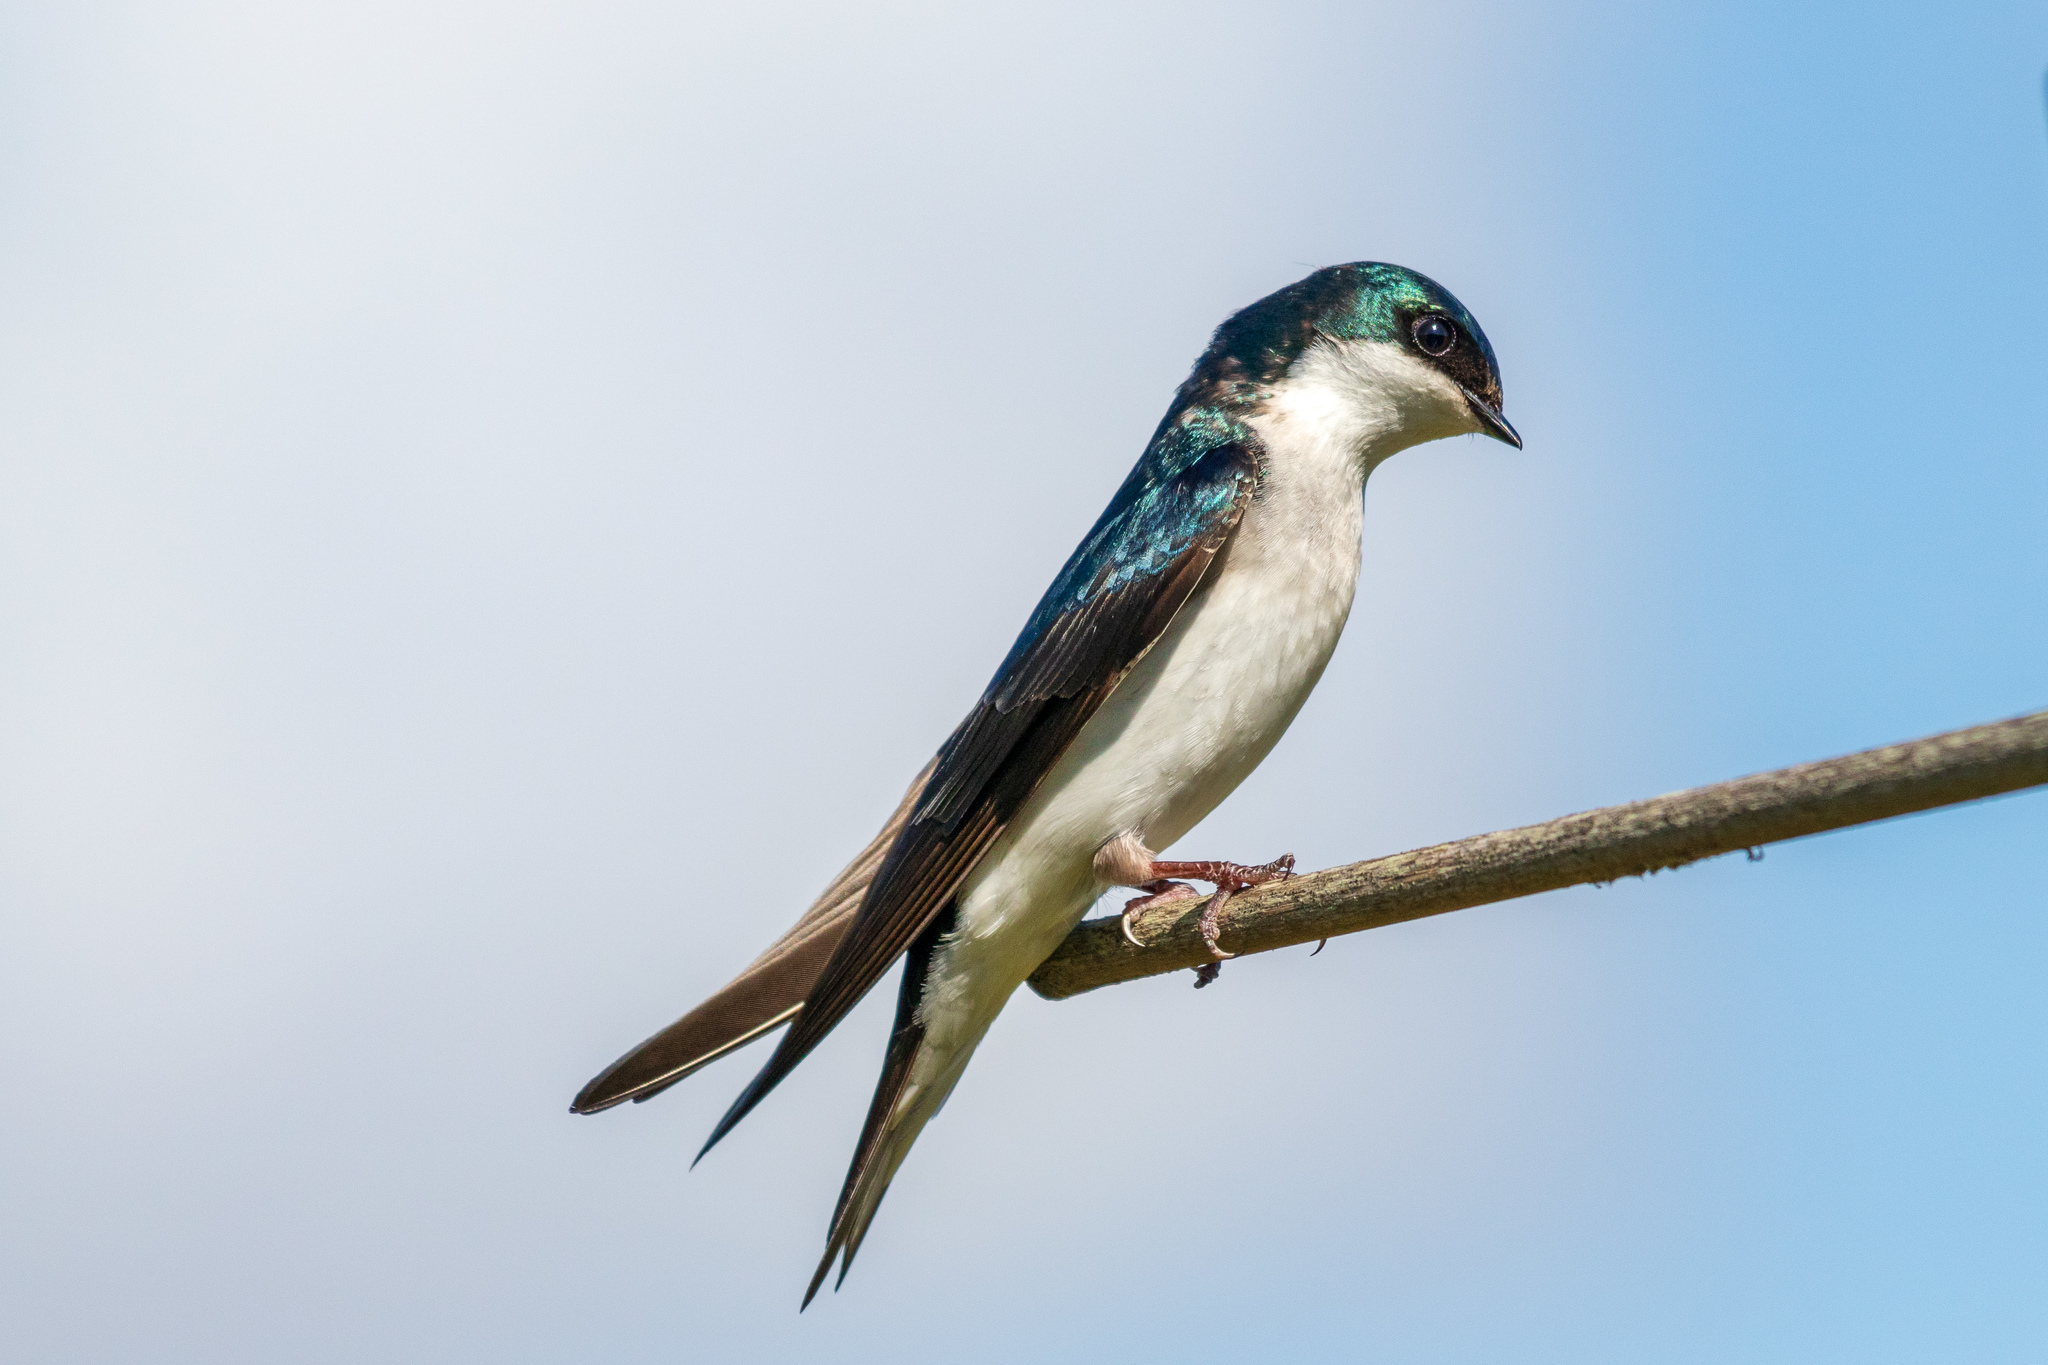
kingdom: Animalia
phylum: Chordata
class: Aves
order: Passeriformes
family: Hirundinidae
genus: Tachycineta
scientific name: Tachycineta bicolor
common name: Tree swallow
